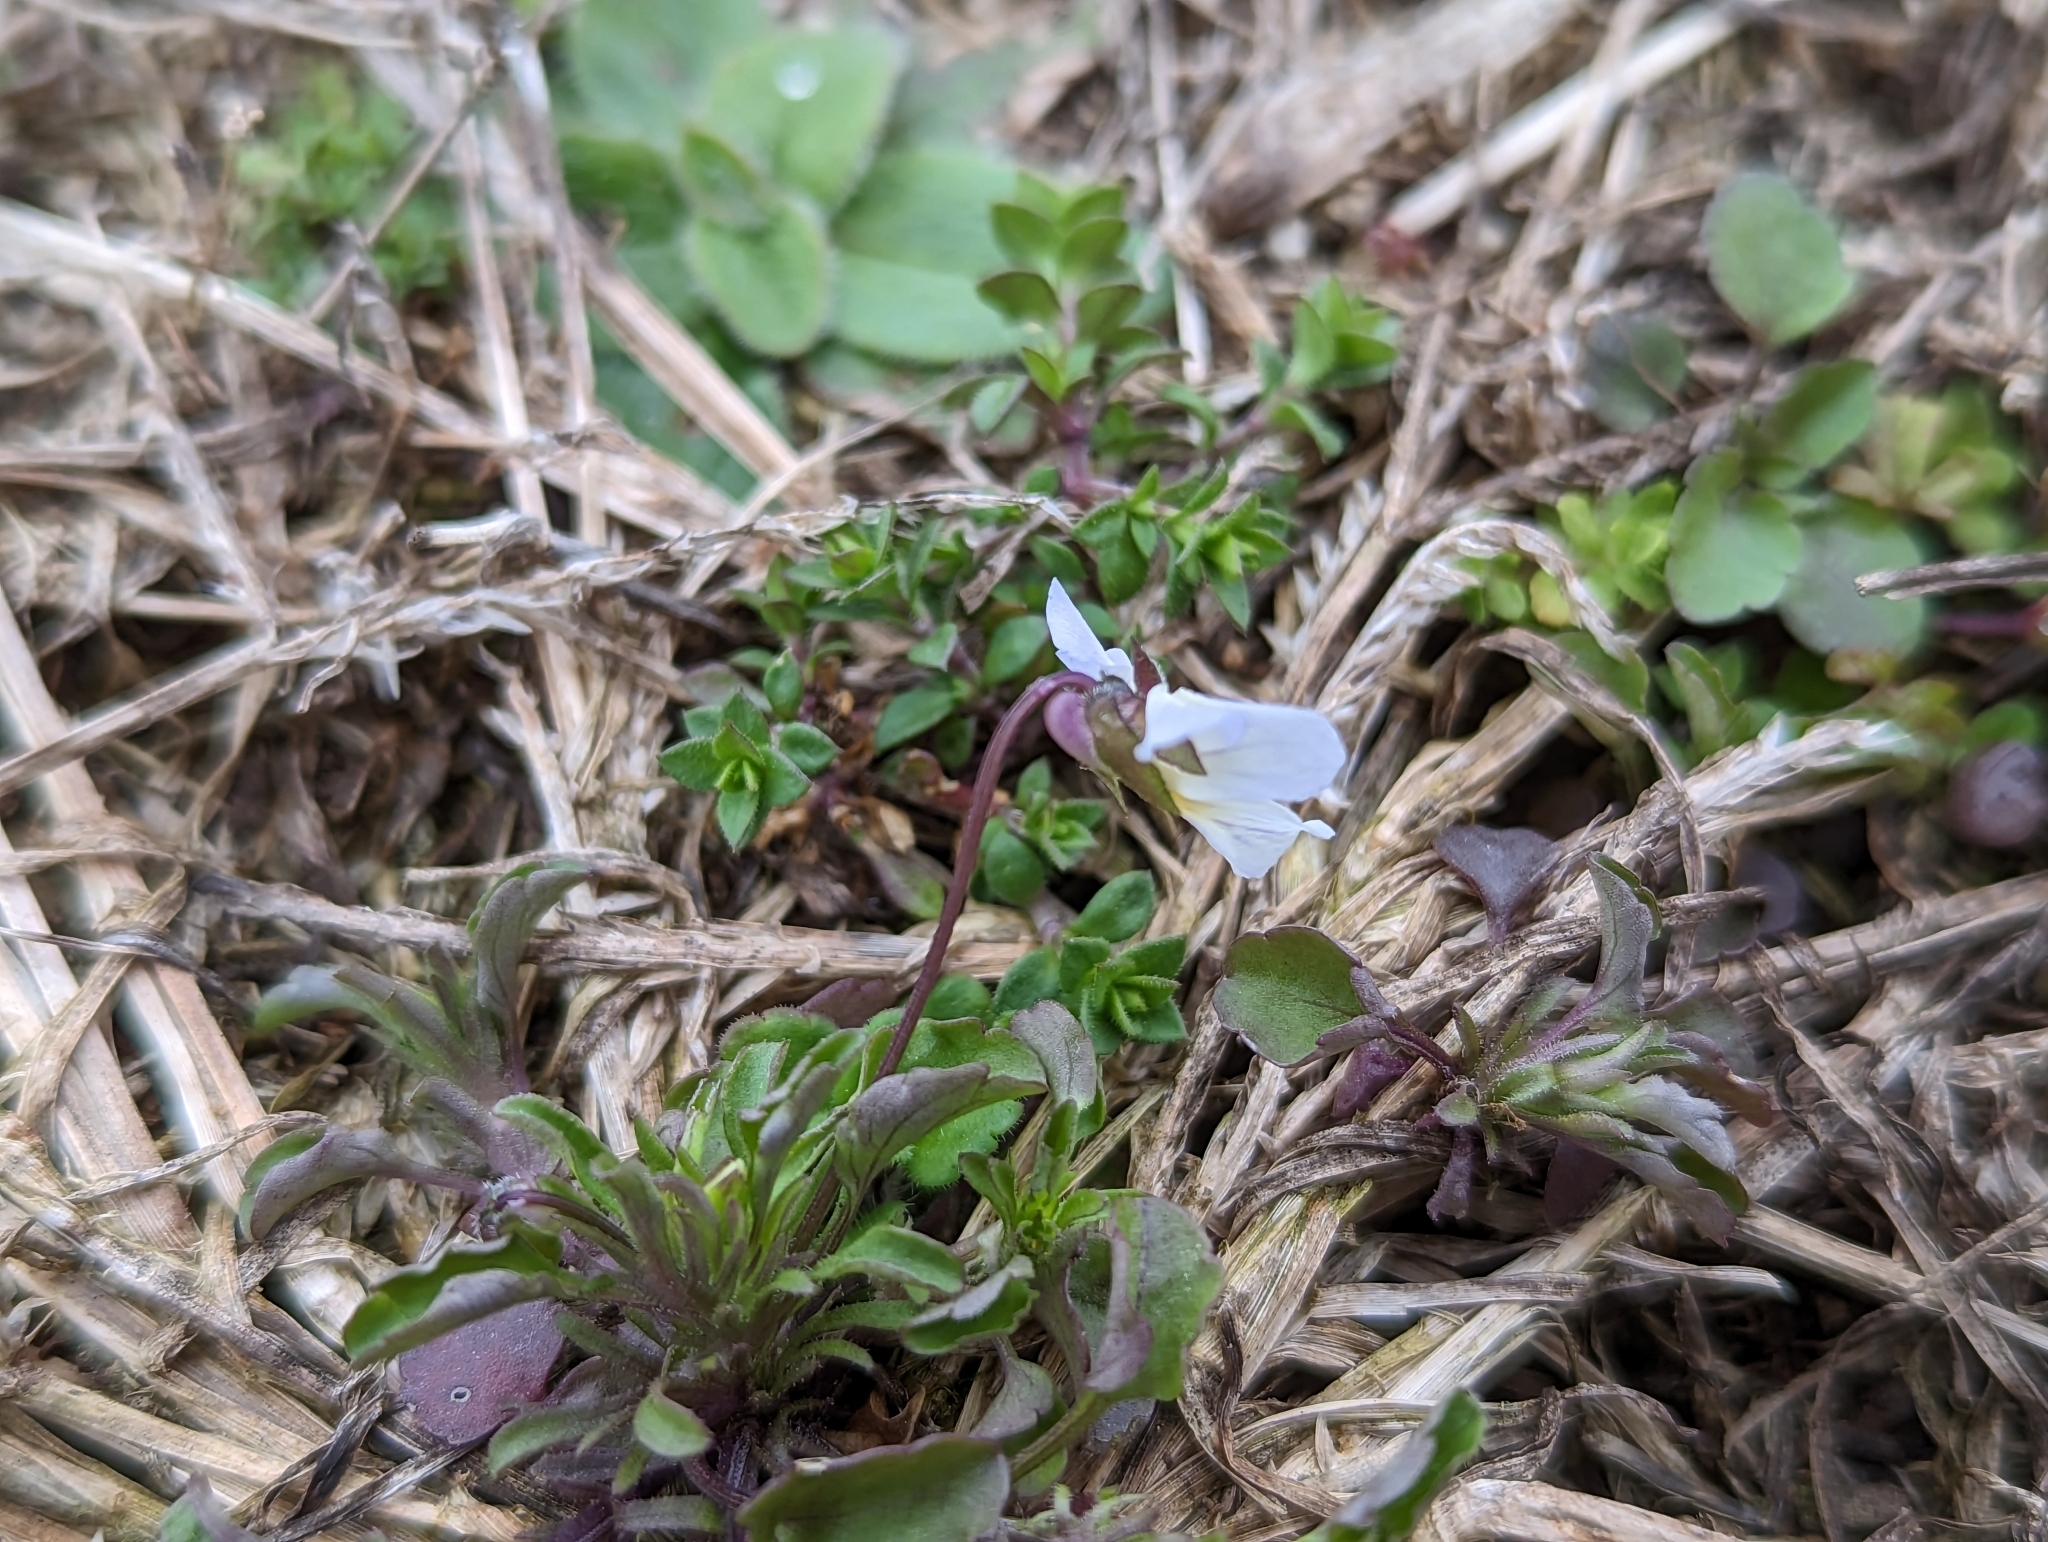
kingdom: Plantae
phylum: Tracheophyta
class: Magnoliopsida
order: Malpighiales
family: Violaceae
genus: Viola
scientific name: Viola rafinesquei
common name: American field pansy
